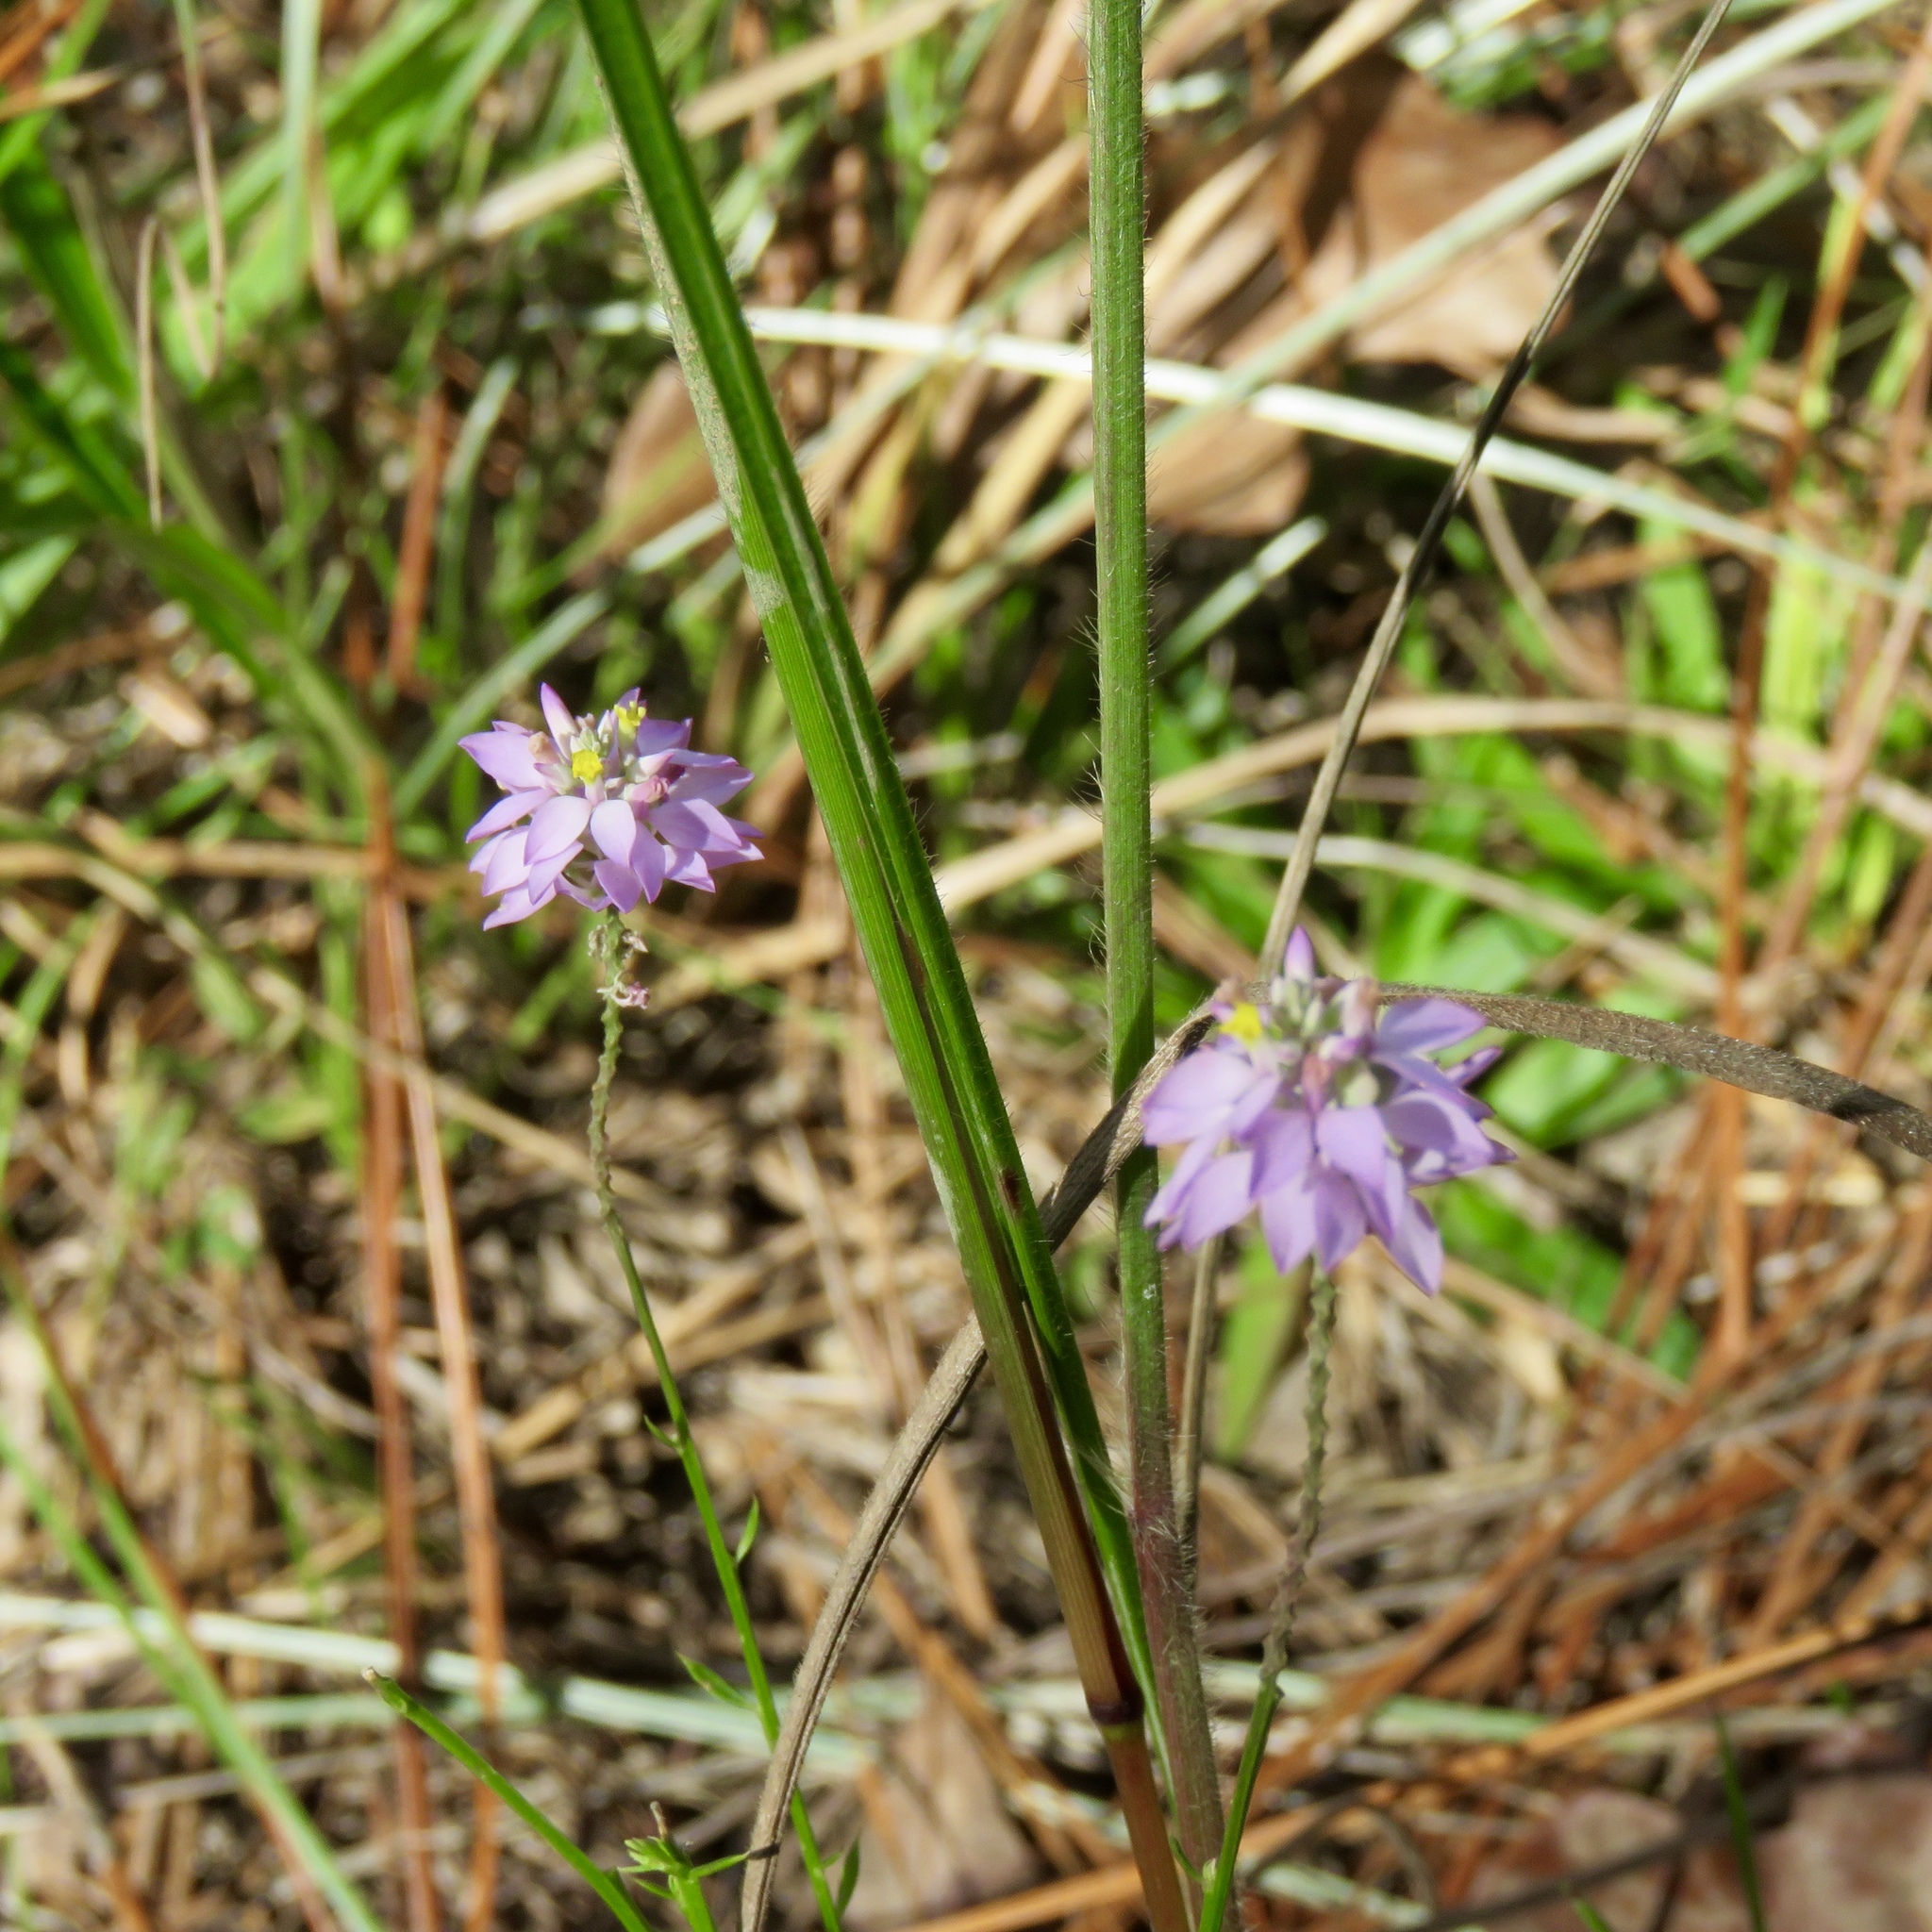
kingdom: Plantae
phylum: Tracheophyta
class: Magnoliopsida
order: Fabales
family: Polygalaceae
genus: Polygala
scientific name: Polygala mariana
